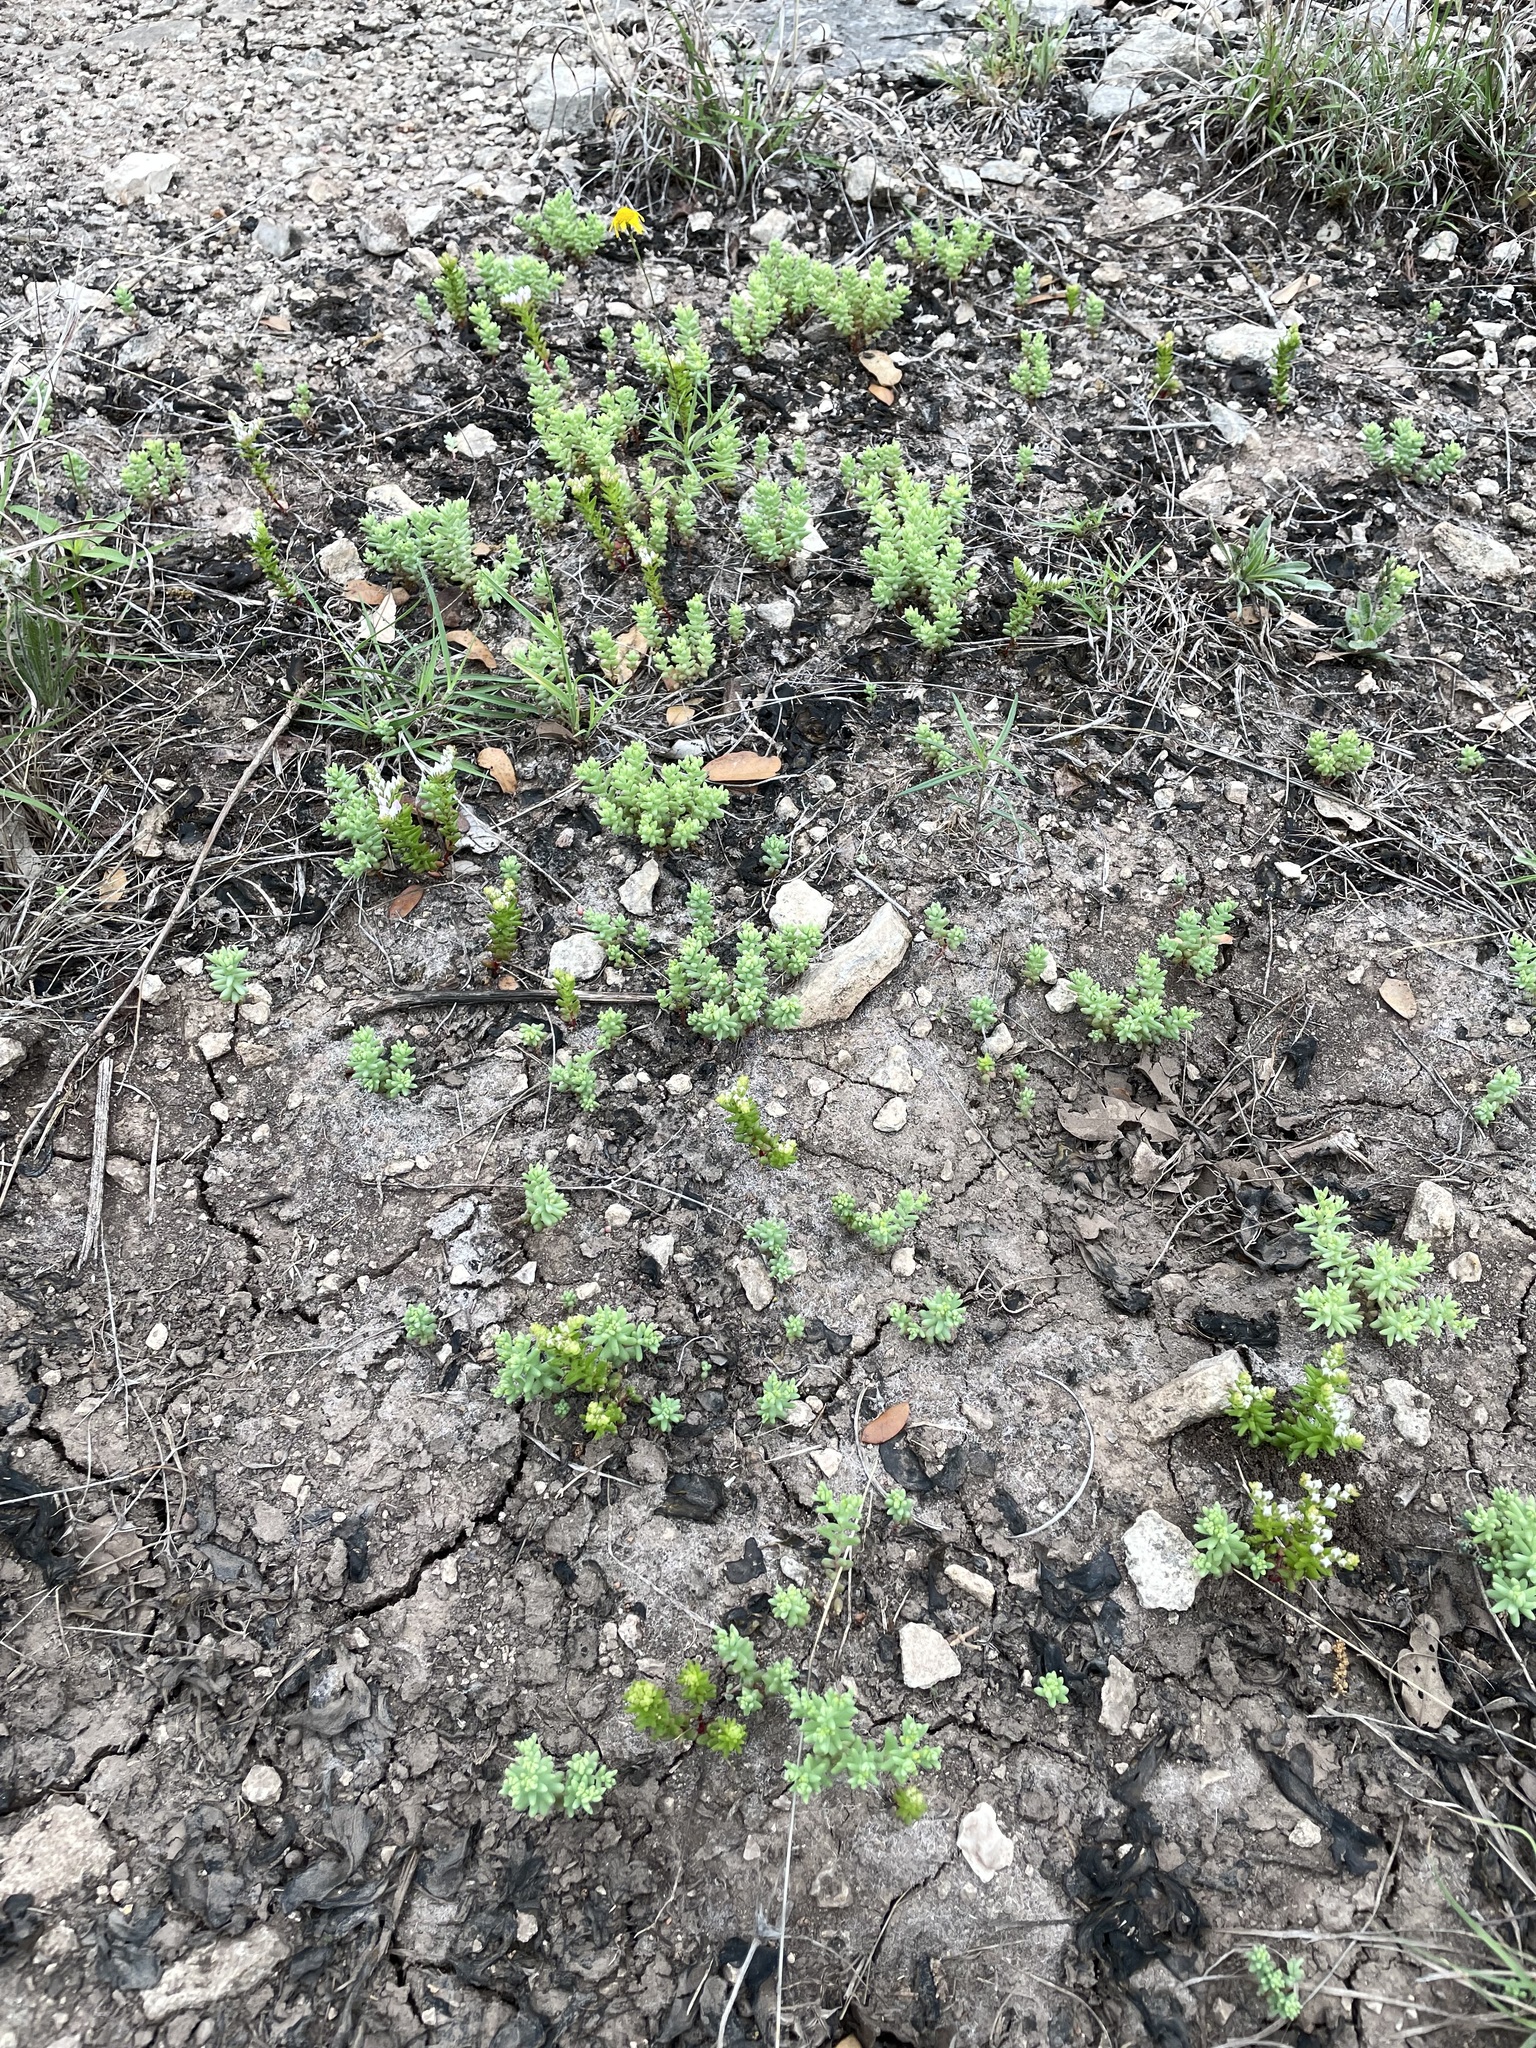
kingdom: Plantae
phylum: Tracheophyta
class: Magnoliopsida
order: Saxifragales
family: Crassulaceae
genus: Sedum
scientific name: Sedum pulchellum
